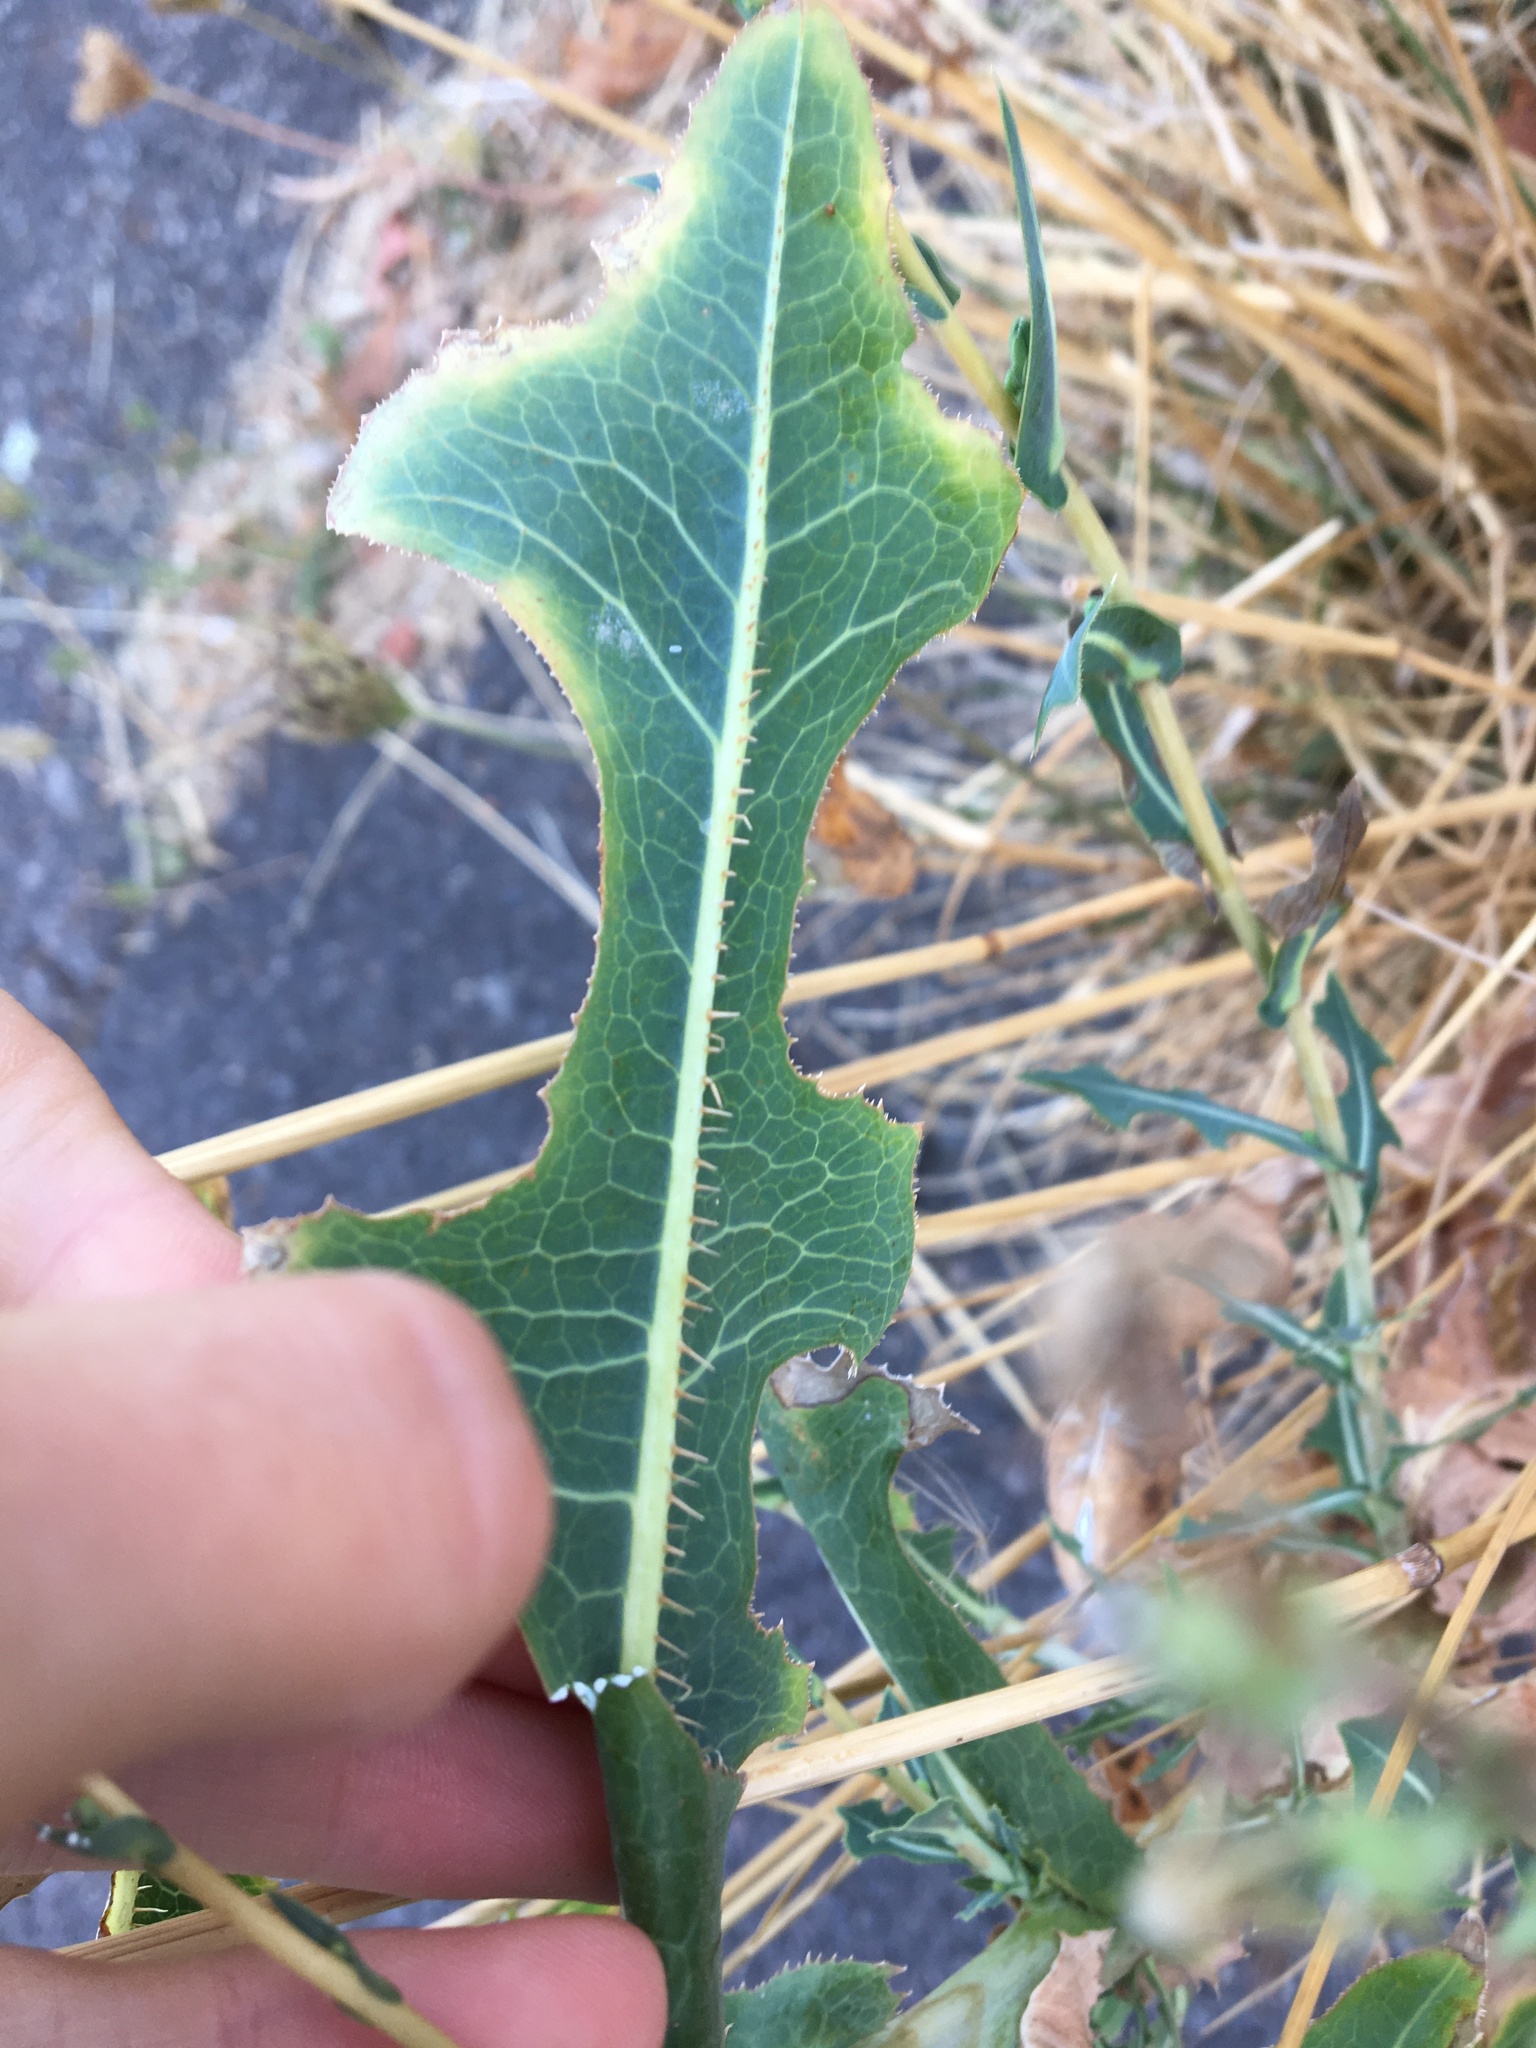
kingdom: Plantae
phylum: Tracheophyta
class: Magnoliopsida
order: Asterales
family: Asteraceae
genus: Lactuca
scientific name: Lactuca serriola
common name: Prickly lettuce
